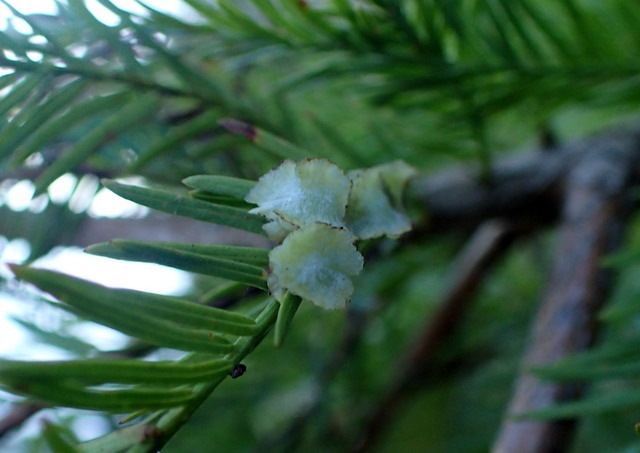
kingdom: Animalia
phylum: Arthropoda
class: Insecta
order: Diptera
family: Cecidomyiidae
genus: Taxodiomyia
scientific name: Taxodiomyia cupressi
